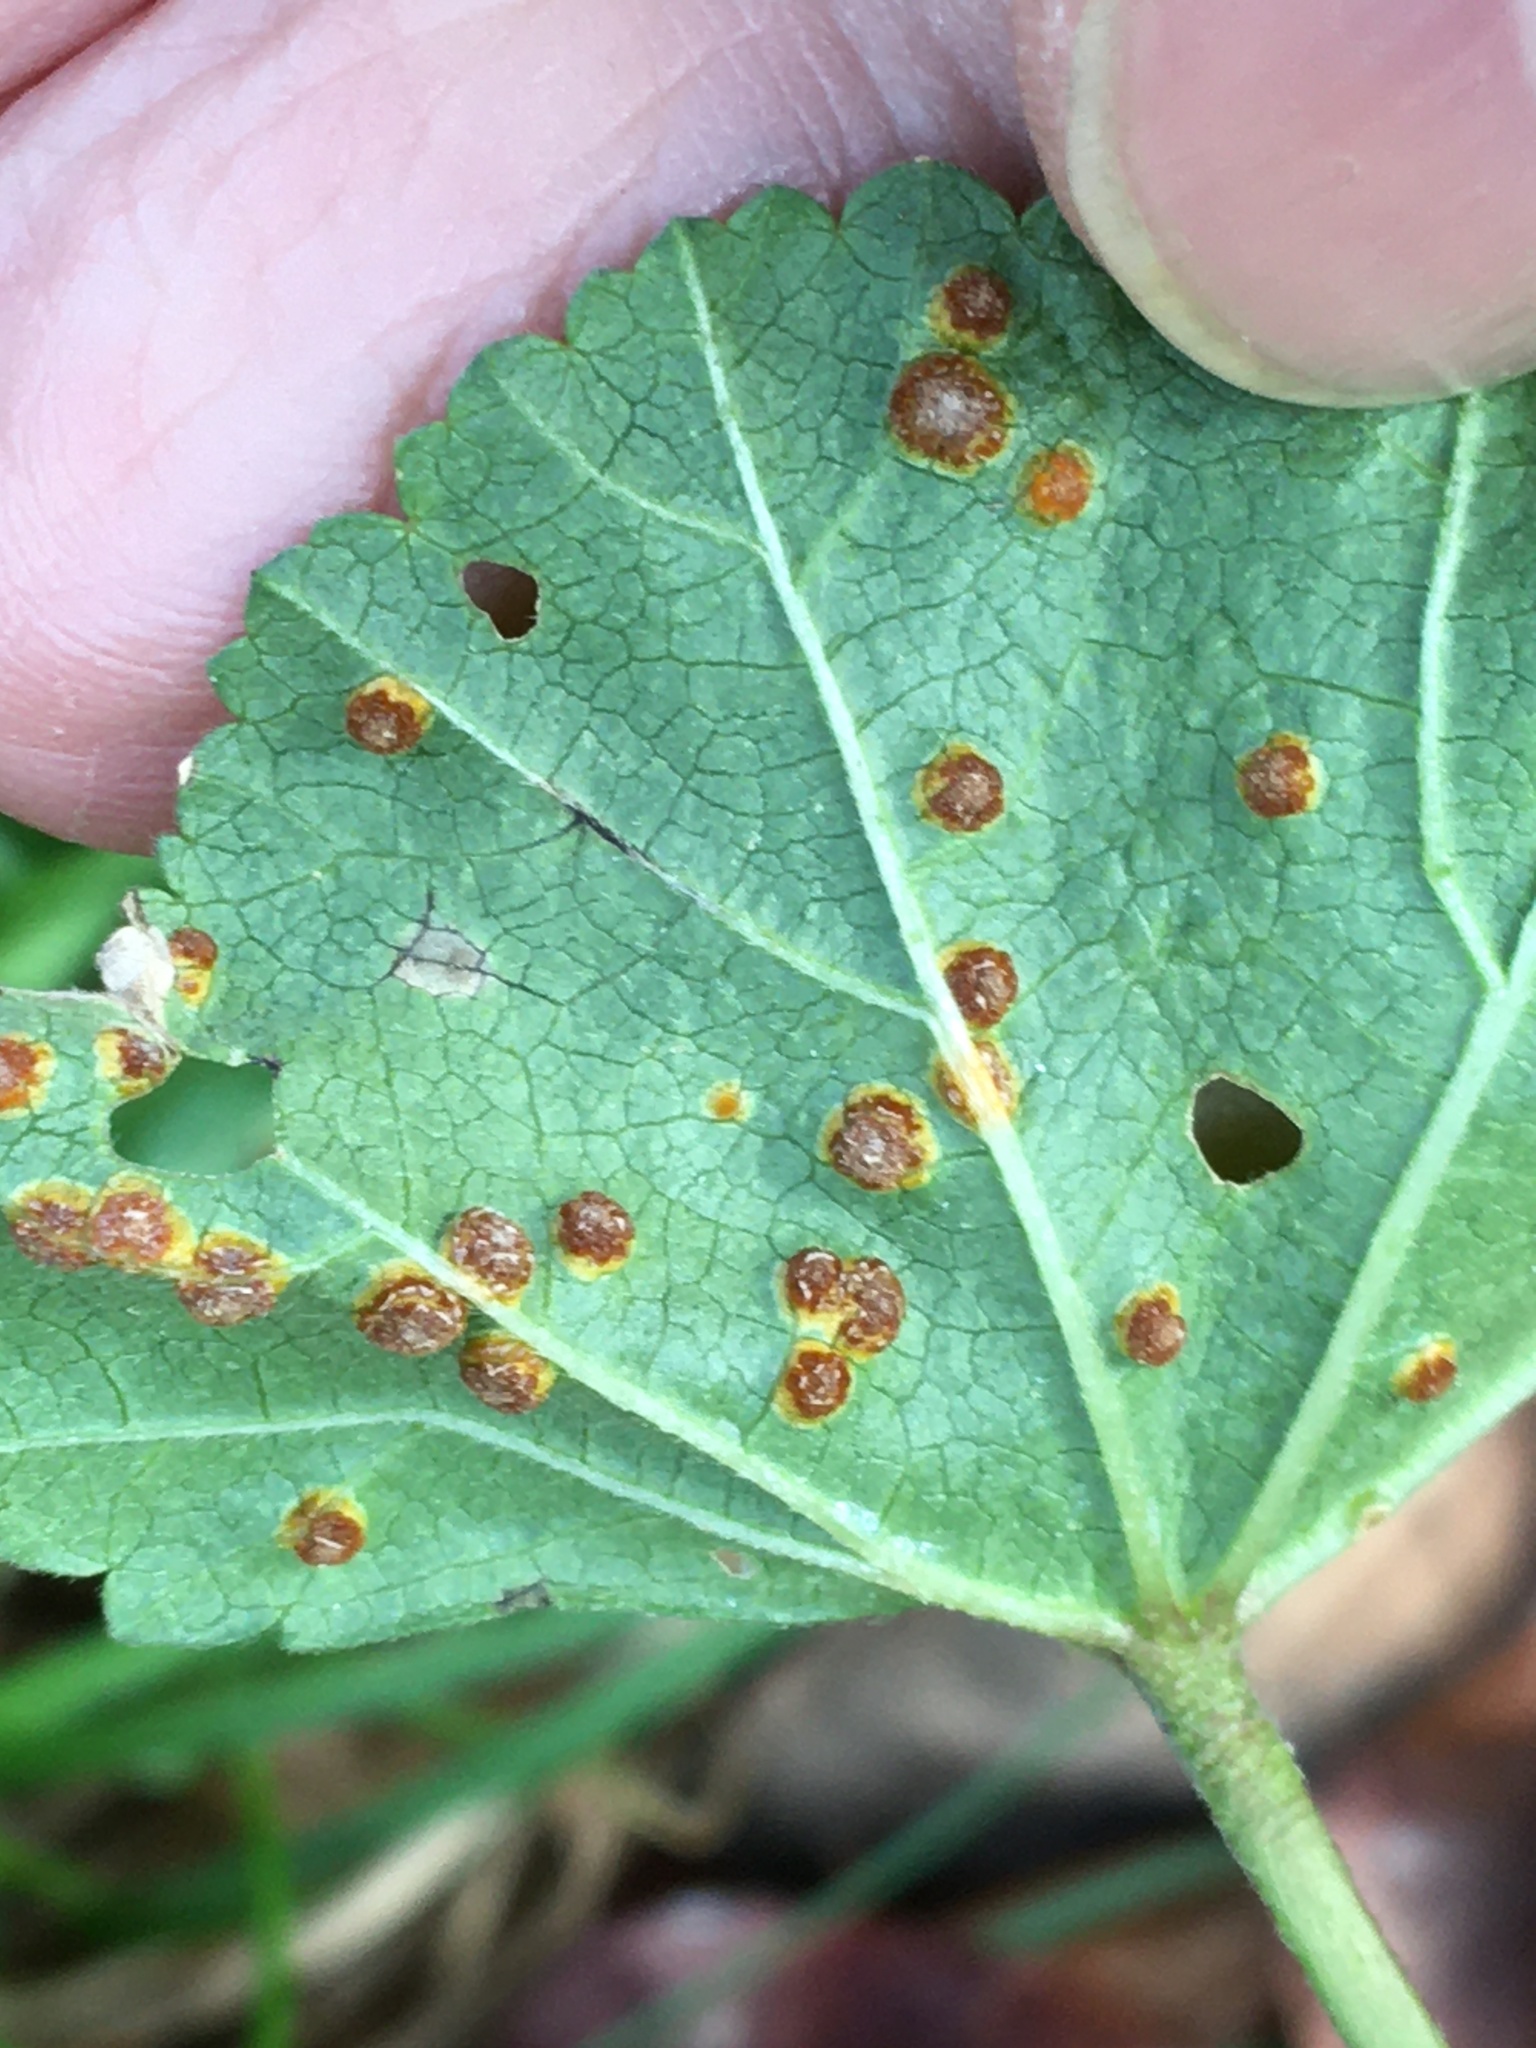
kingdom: Fungi
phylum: Basidiomycota
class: Pucciniomycetes
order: Pucciniales
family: Pucciniaceae
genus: Puccinia
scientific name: Puccinia malvacearum
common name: Hollyhock rust
